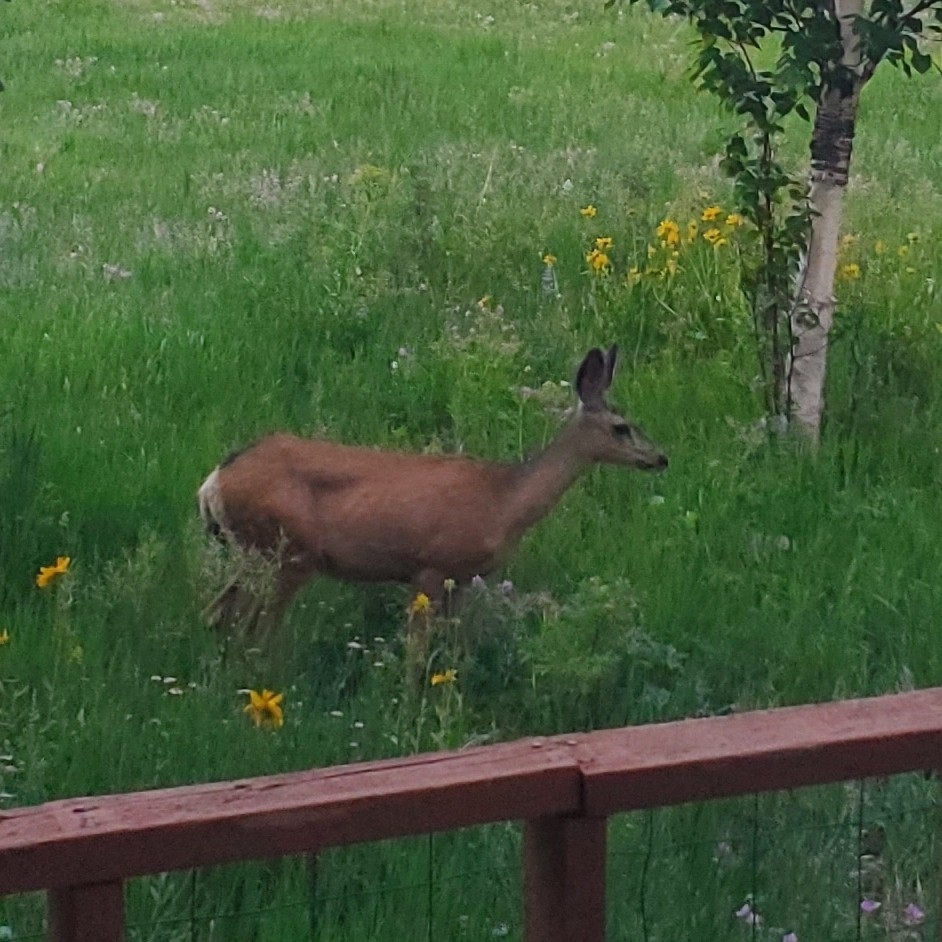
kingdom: Animalia
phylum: Chordata
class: Mammalia
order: Artiodactyla
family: Cervidae
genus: Odocoileus
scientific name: Odocoileus hemionus
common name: Mule deer
